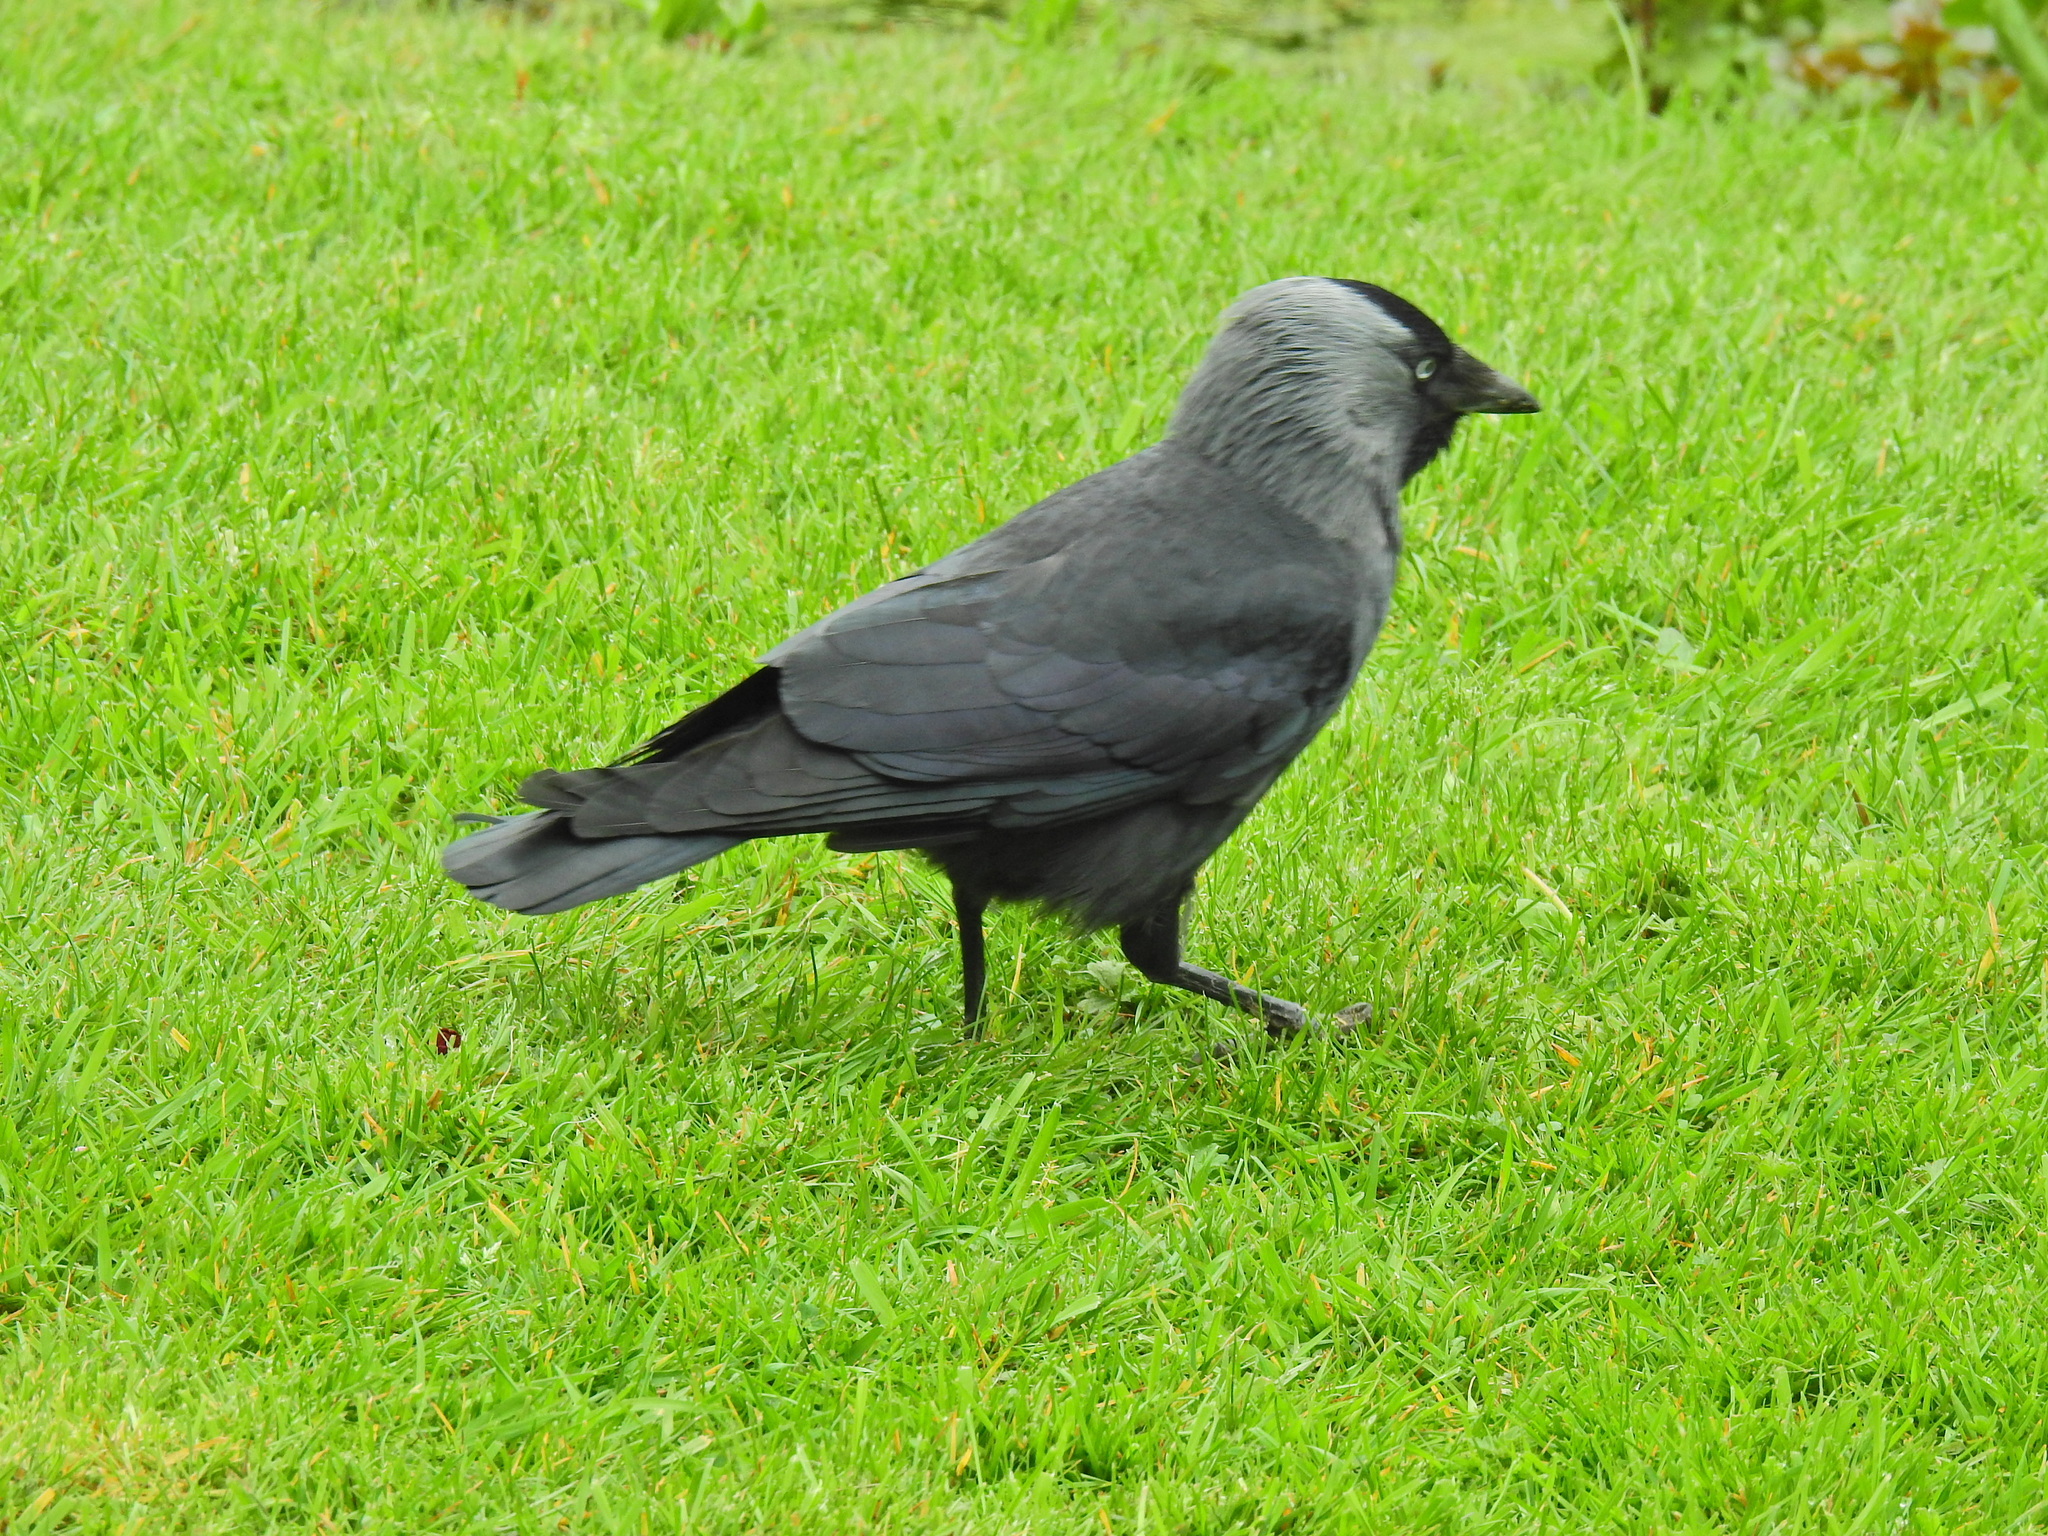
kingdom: Animalia
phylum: Chordata
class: Aves
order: Passeriformes
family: Corvidae
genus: Coloeus
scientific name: Coloeus monedula
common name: Western jackdaw
